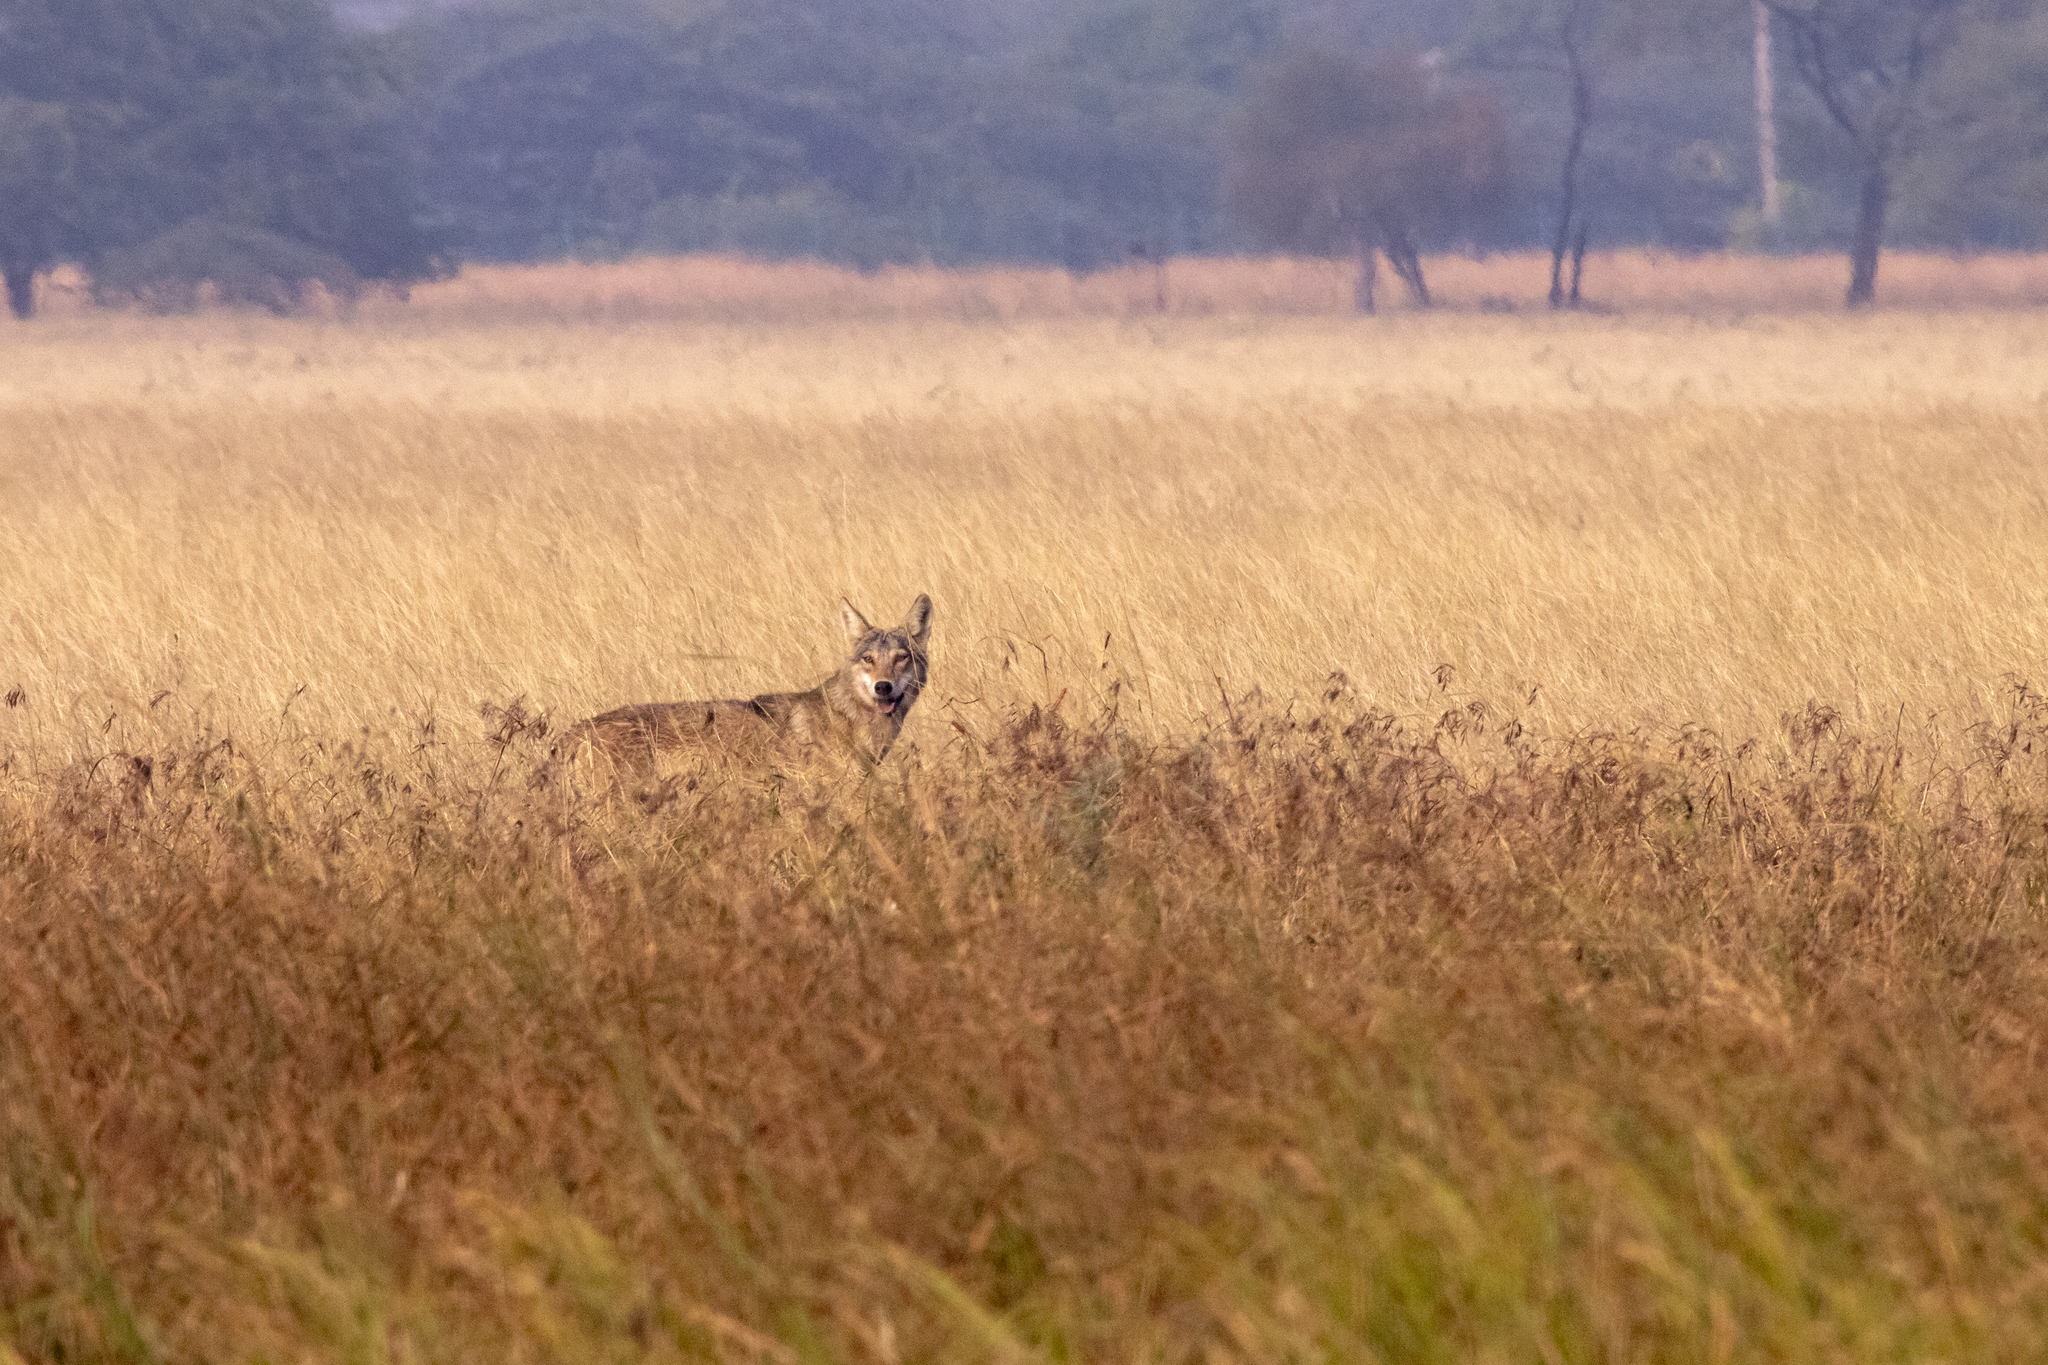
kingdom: Animalia
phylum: Chordata
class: Mammalia
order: Carnivora
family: Canidae
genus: Canis
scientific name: Canis lupus
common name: Gray wolf
